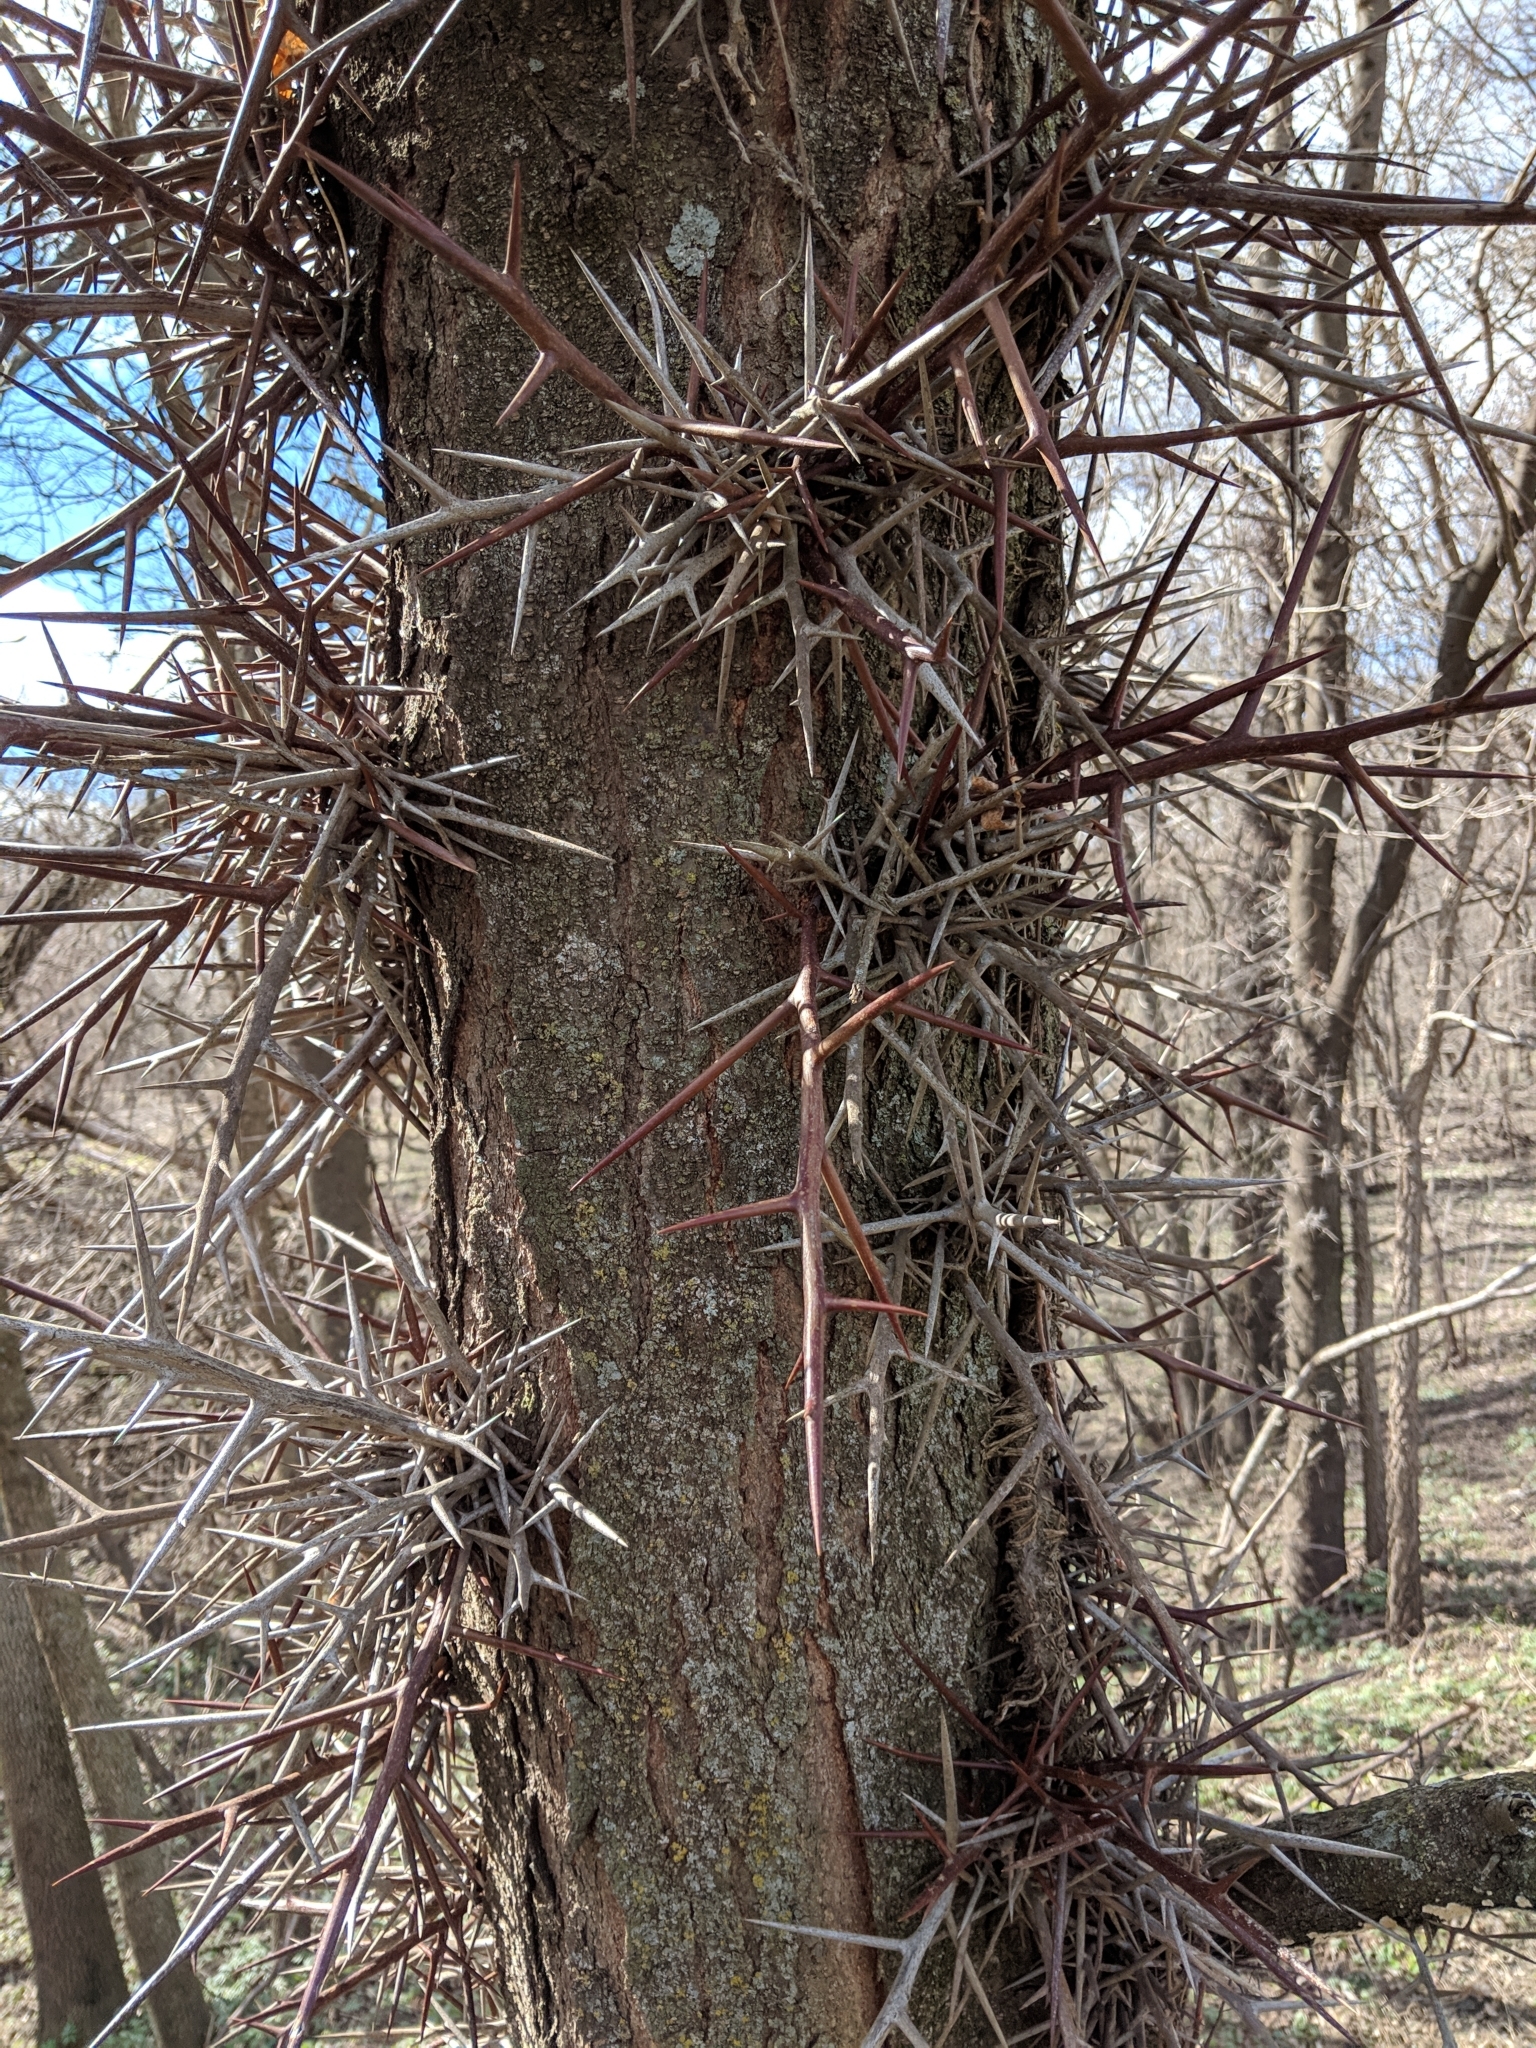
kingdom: Plantae
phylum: Tracheophyta
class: Magnoliopsida
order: Fabales
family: Fabaceae
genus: Gleditsia
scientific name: Gleditsia triacanthos
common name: Common honeylocust
